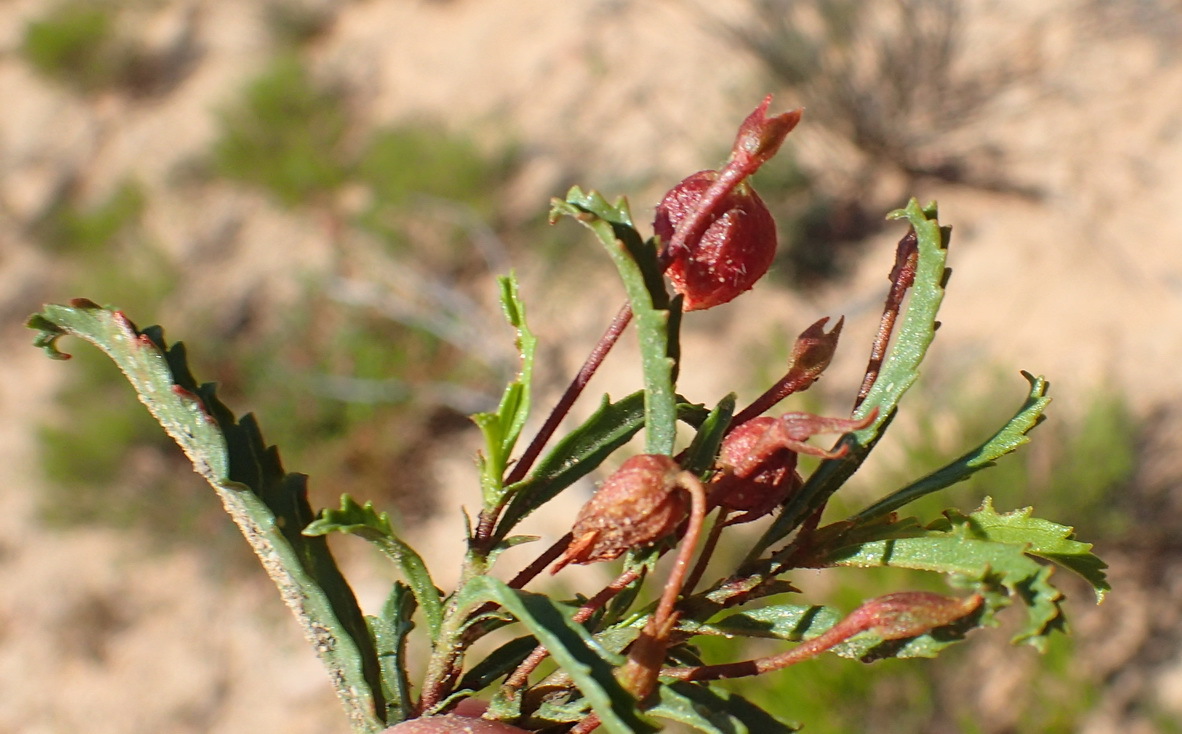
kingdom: Plantae
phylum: Tracheophyta
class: Magnoliopsida
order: Malvales
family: Malvaceae
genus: Hermannia
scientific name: Hermannia saccifera
